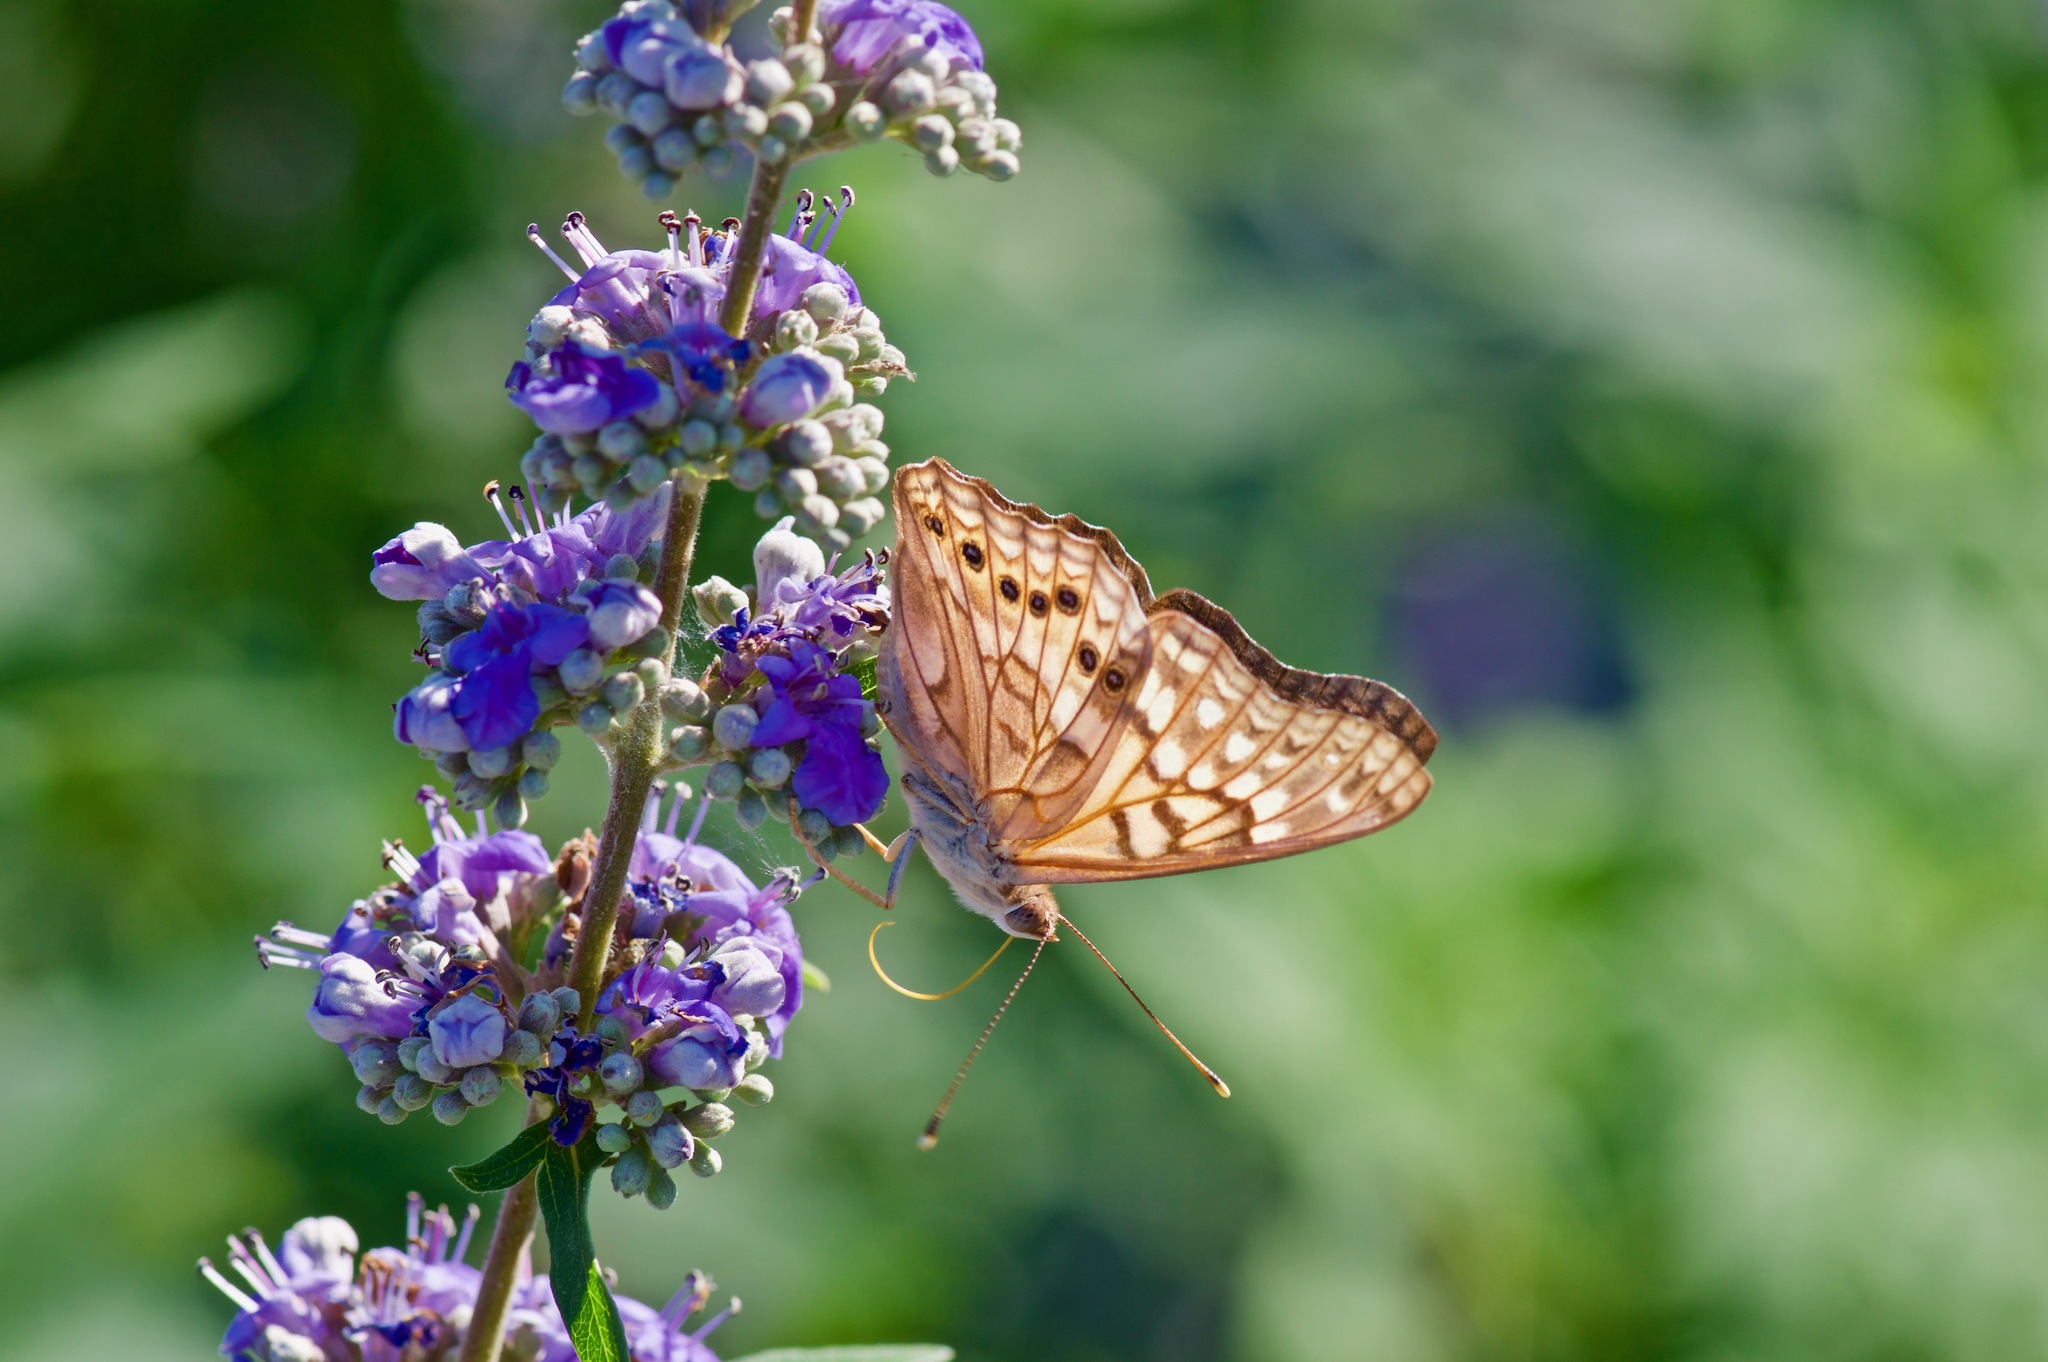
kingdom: Animalia
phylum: Arthropoda
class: Insecta
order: Lepidoptera
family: Nymphalidae
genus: Asterocampa
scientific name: Asterocampa clyton
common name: Tawny emperor
